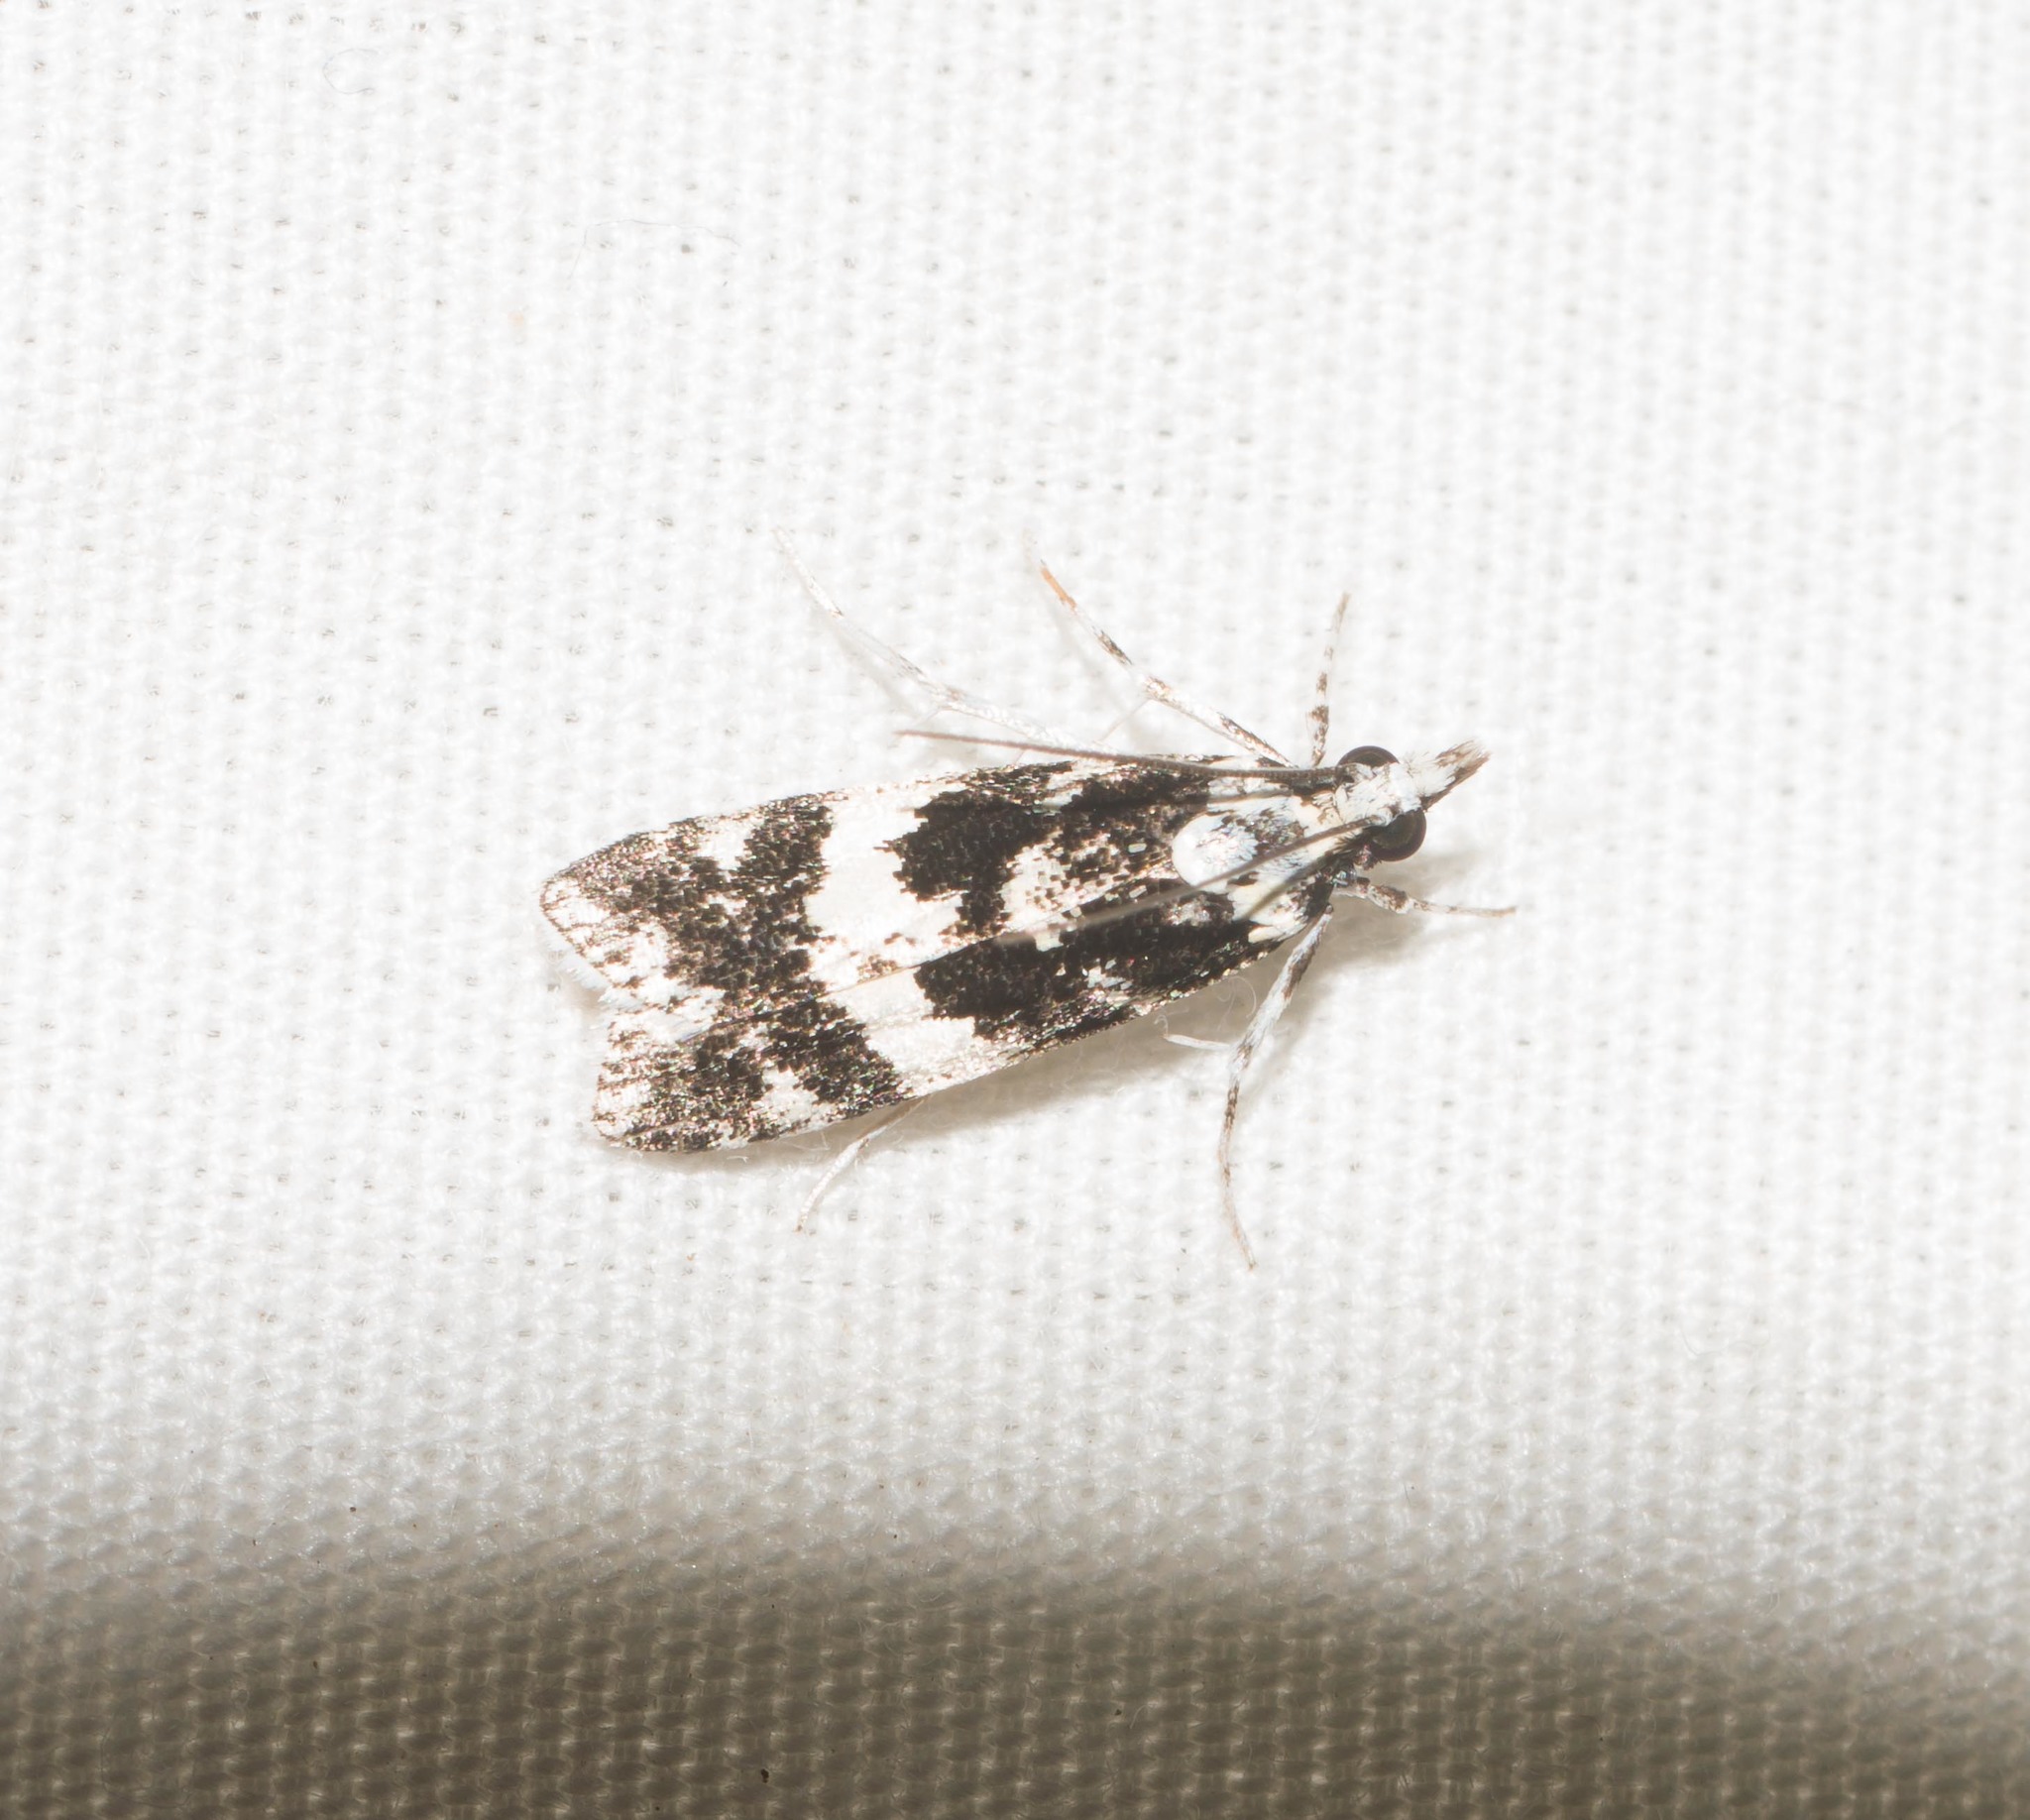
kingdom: Animalia
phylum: Arthropoda
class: Insecta
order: Lepidoptera
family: Crambidae
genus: Eudonia
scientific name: Eudonia mesoleuca
